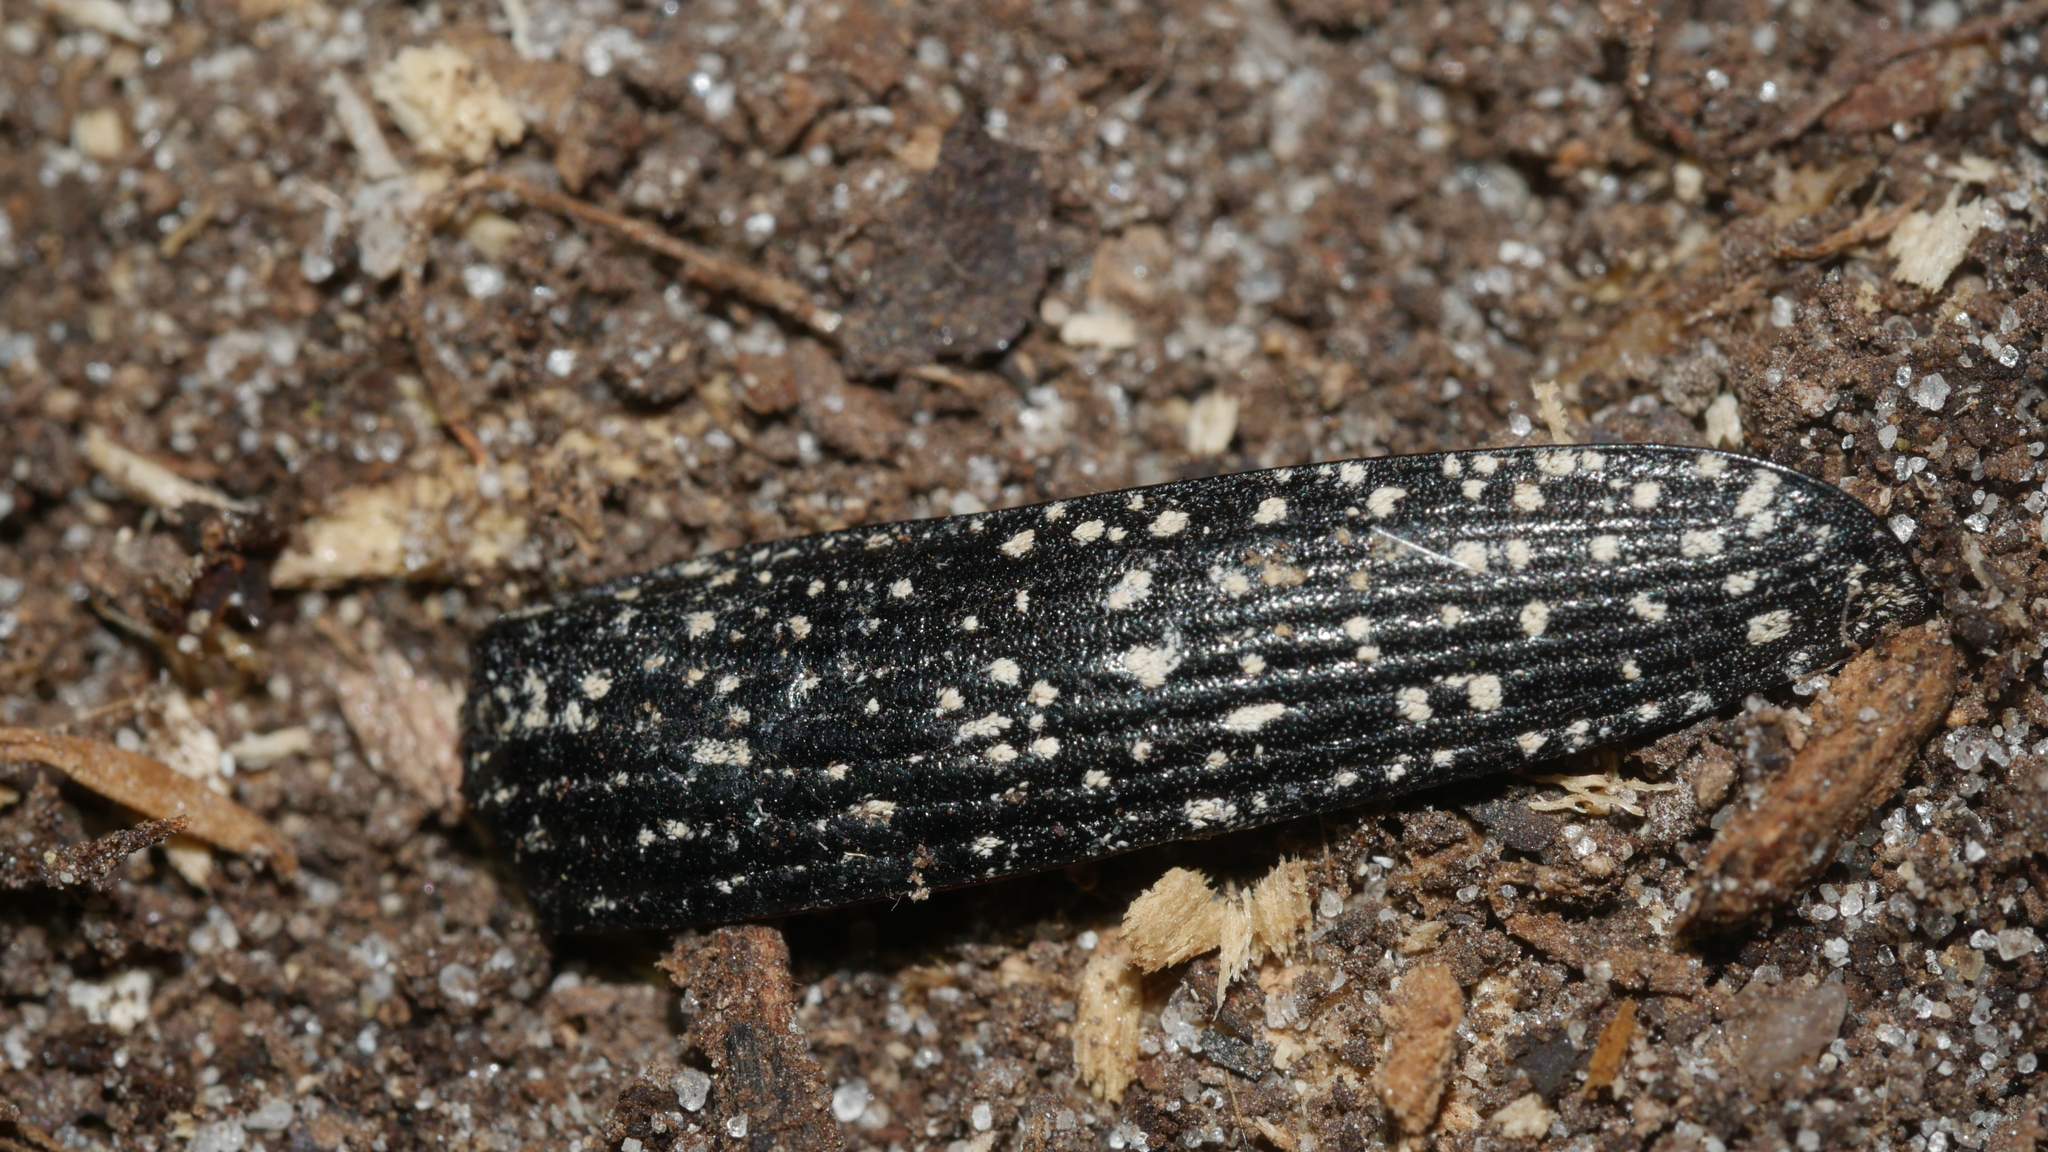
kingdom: Animalia
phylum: Arthropoda
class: Insecta
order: Coleoptera
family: Elateridae
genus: Alaus
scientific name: Alaus oculatus
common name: Eastern eyed click beetle
